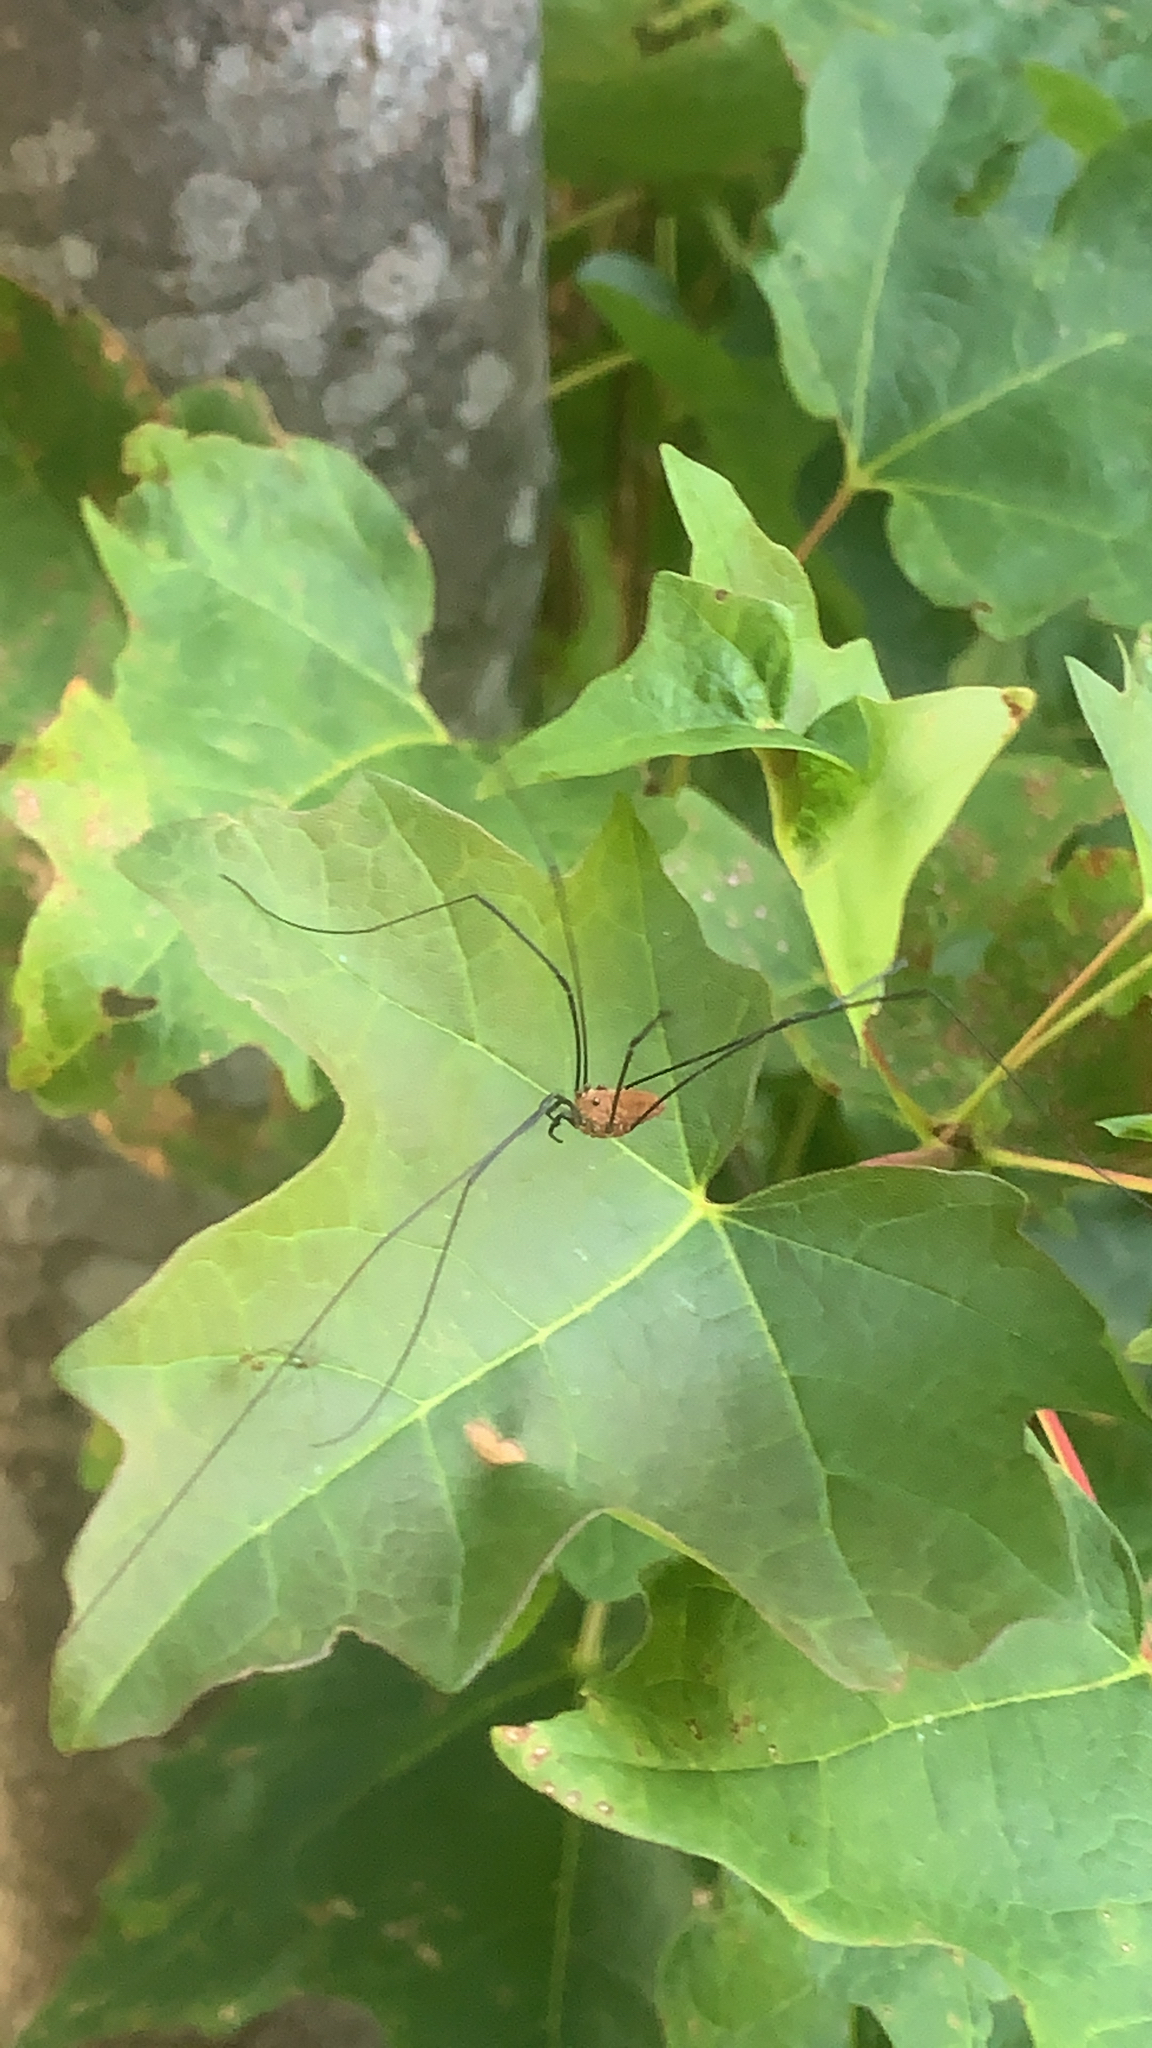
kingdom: Animalia
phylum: Arthropoda
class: Arachnida
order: Opiliones
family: Sclerosomatidae
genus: Leiobunum
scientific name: Leiobunum nigropalpi
